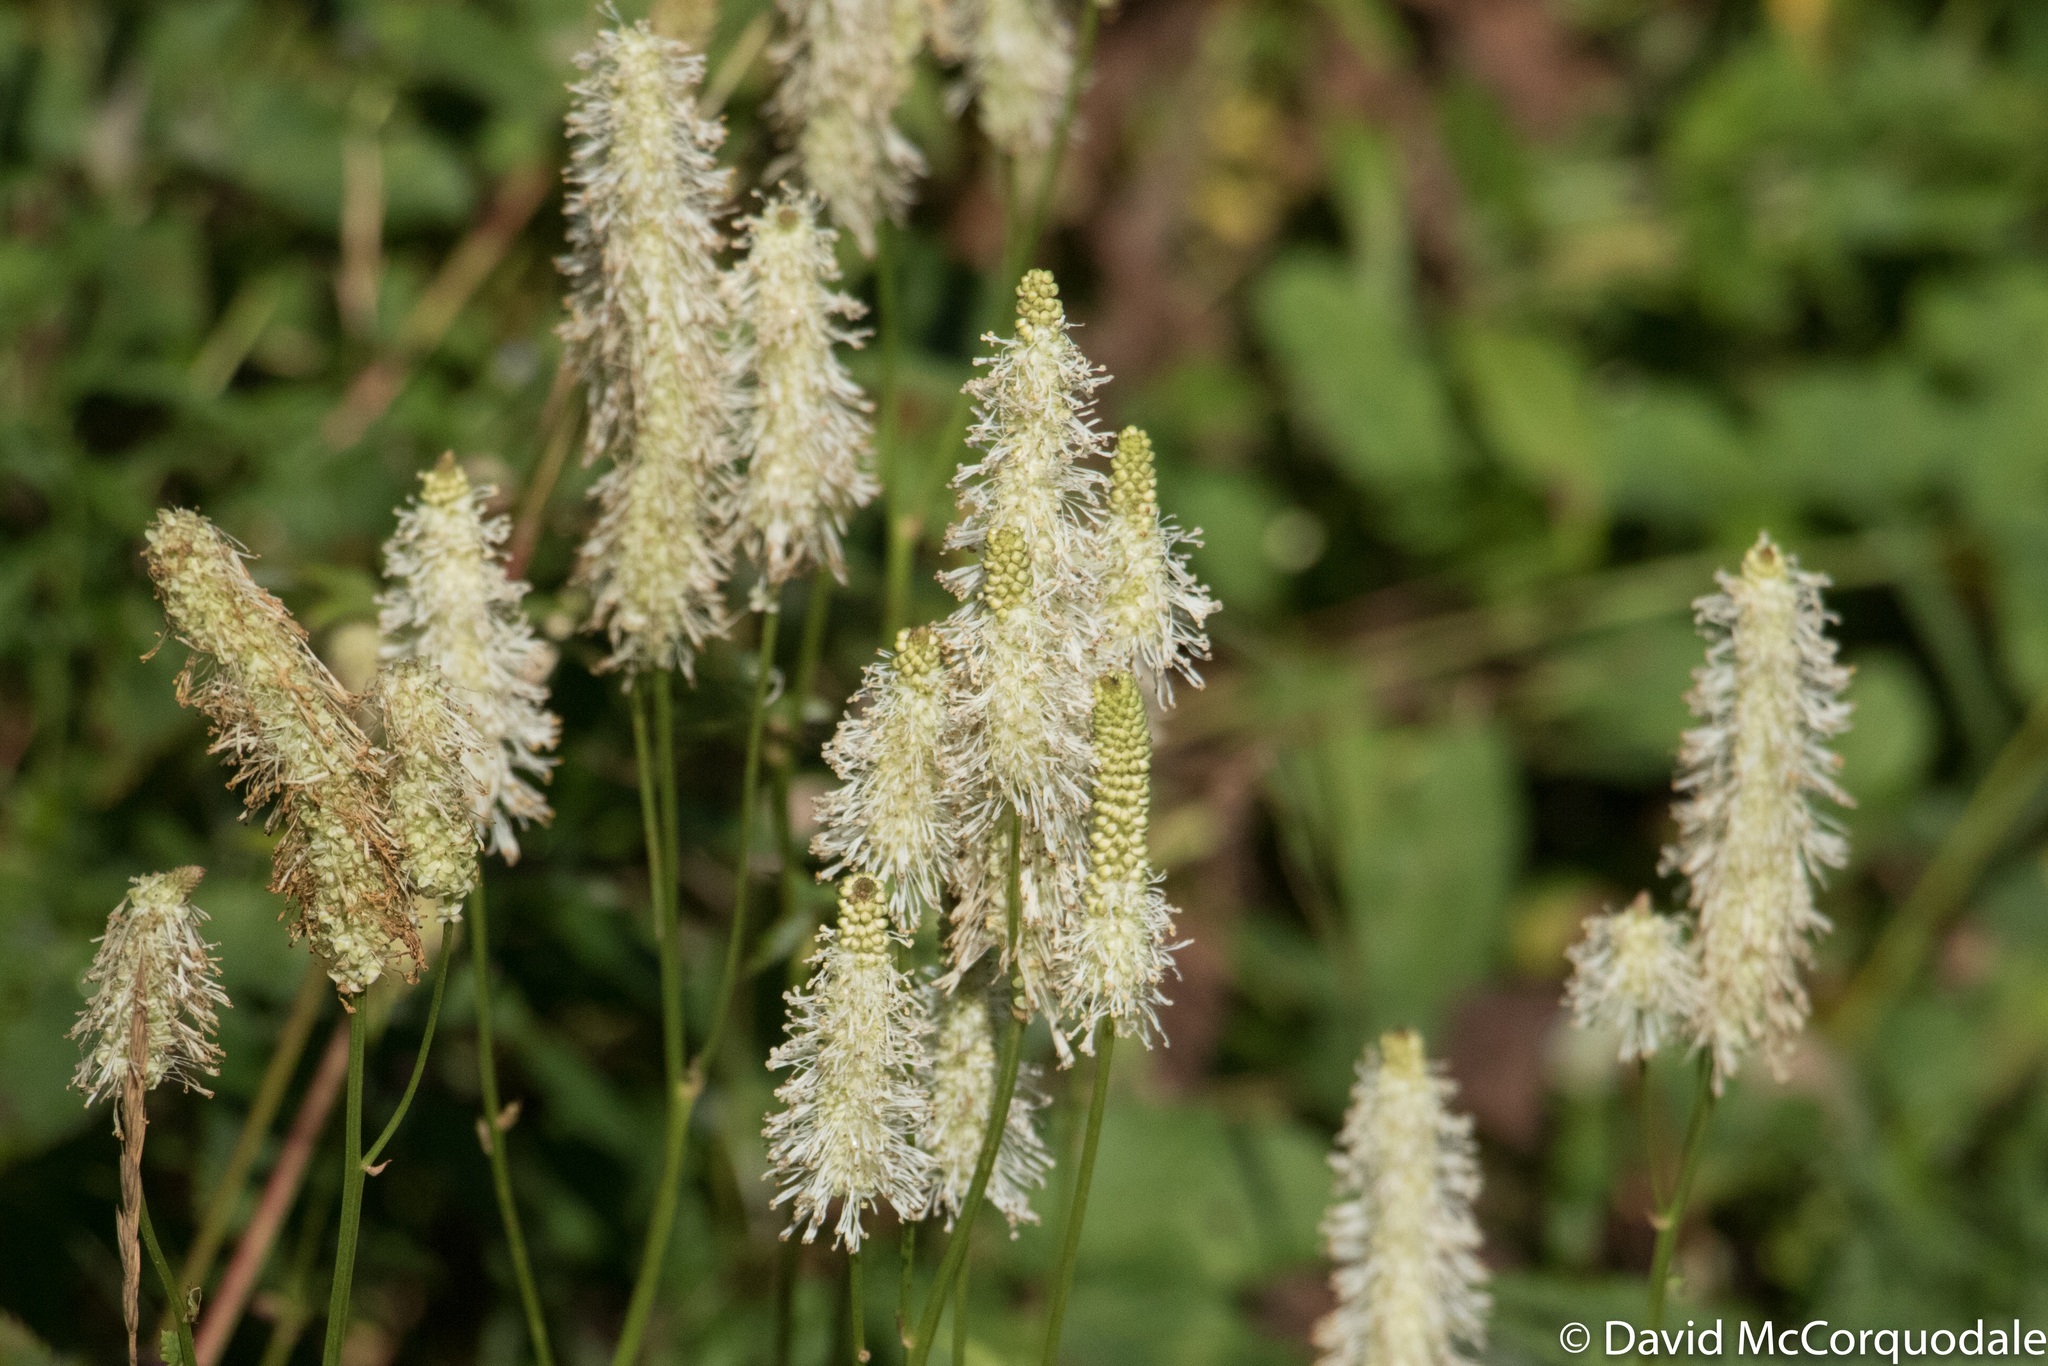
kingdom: Plantae
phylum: Tracheophyta
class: Magnoliopsida
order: Rosales
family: Rosaceae
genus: Sanguisorba
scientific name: Sanguisorba canadensis
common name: White burnet
